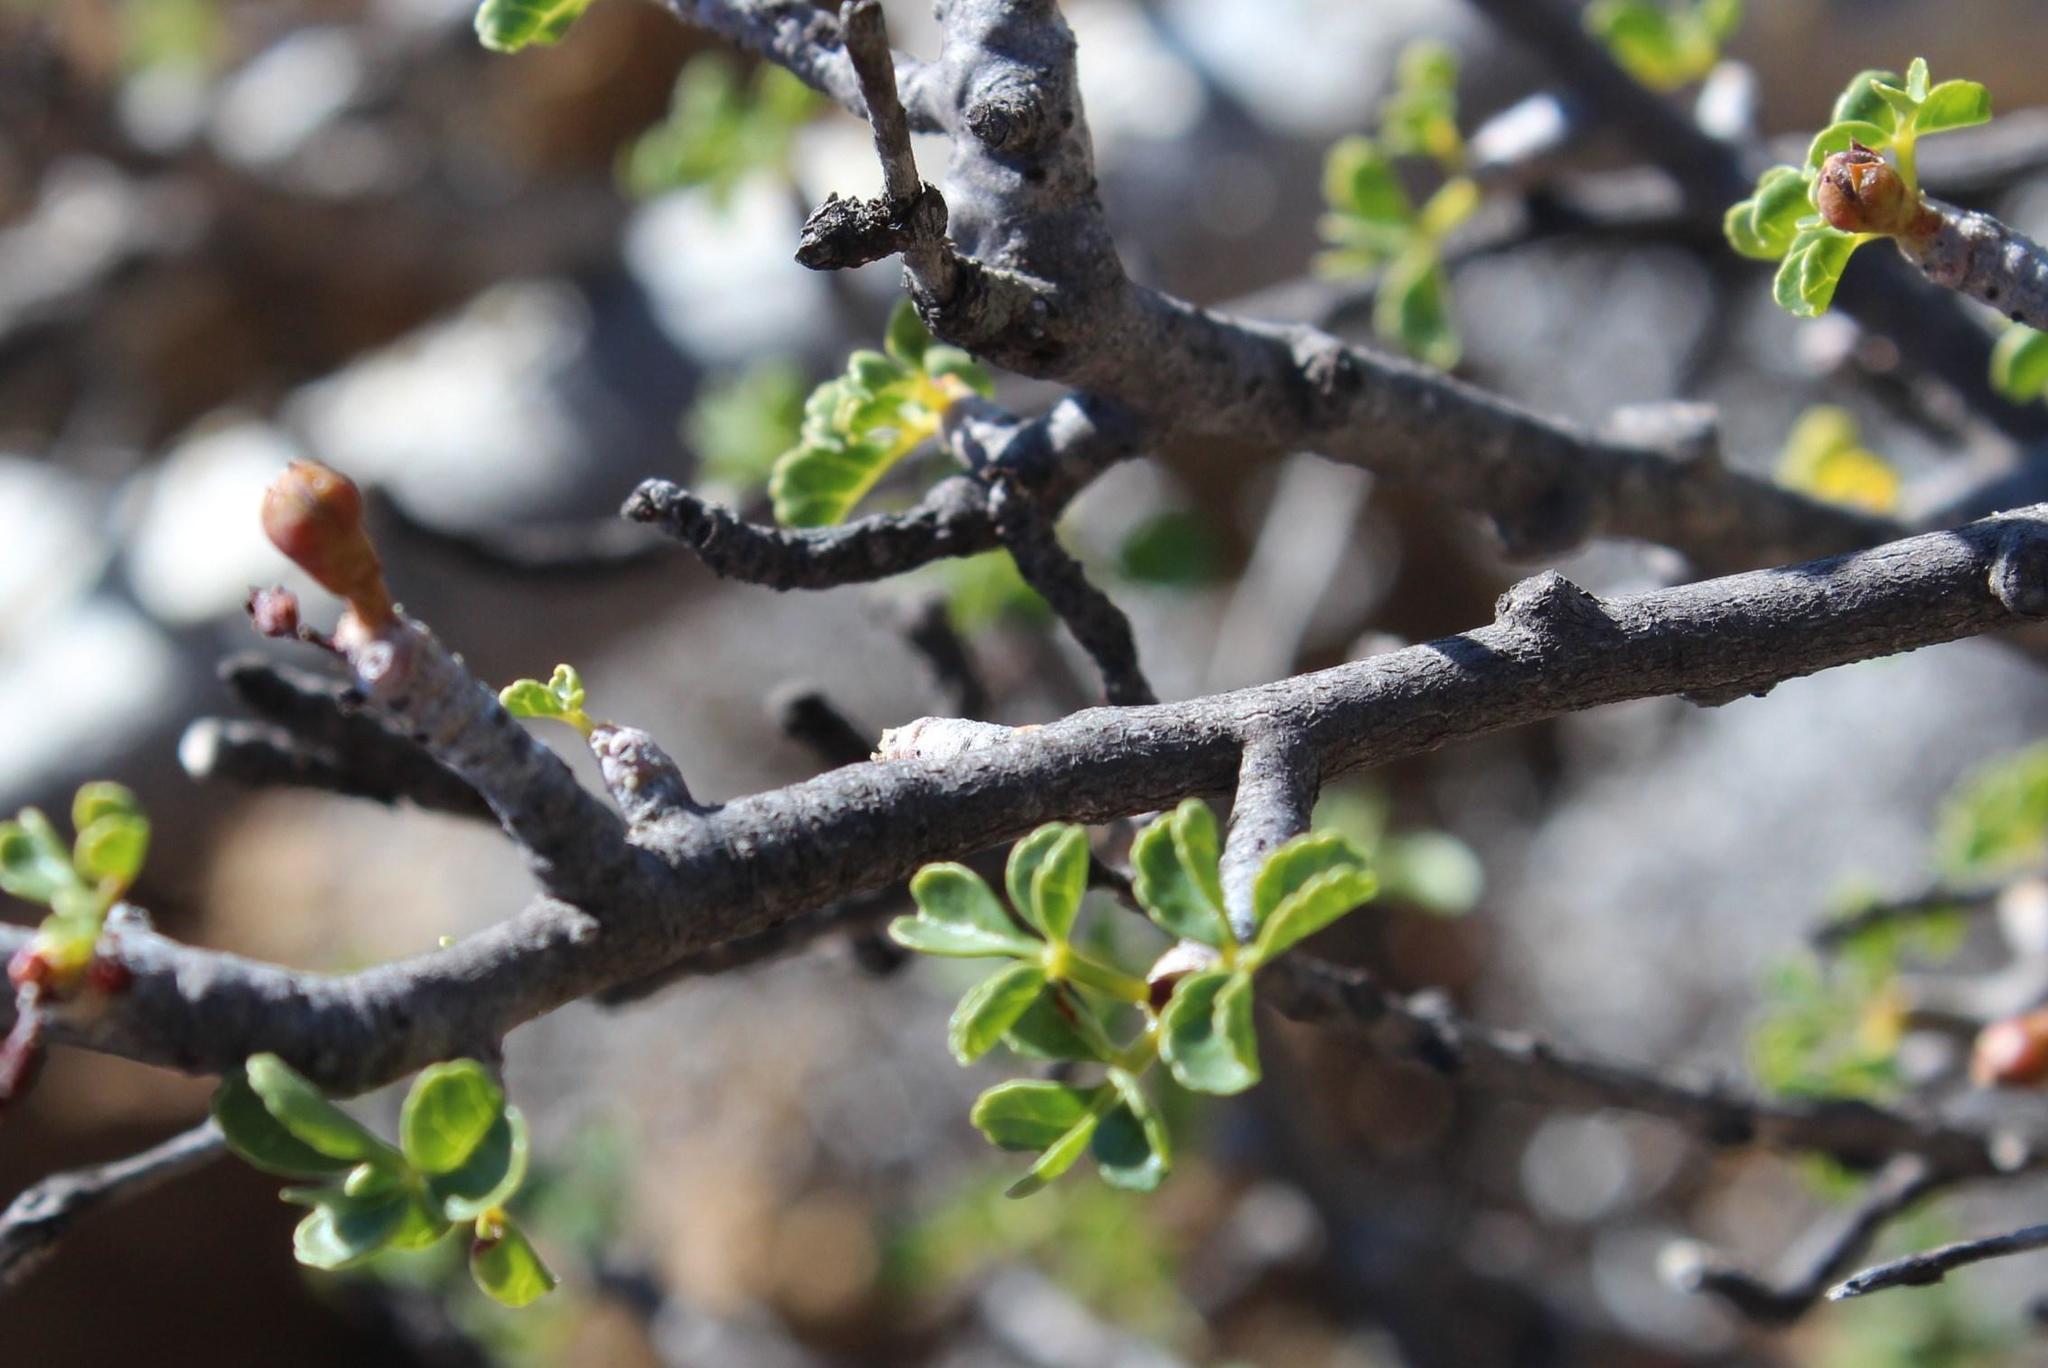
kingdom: Plantae
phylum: Tracheophyta
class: Magnoliopsida
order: Sapindales
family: Burseraceae
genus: Commiphora
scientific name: Commiphora capensis
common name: Namaqua commiphora
